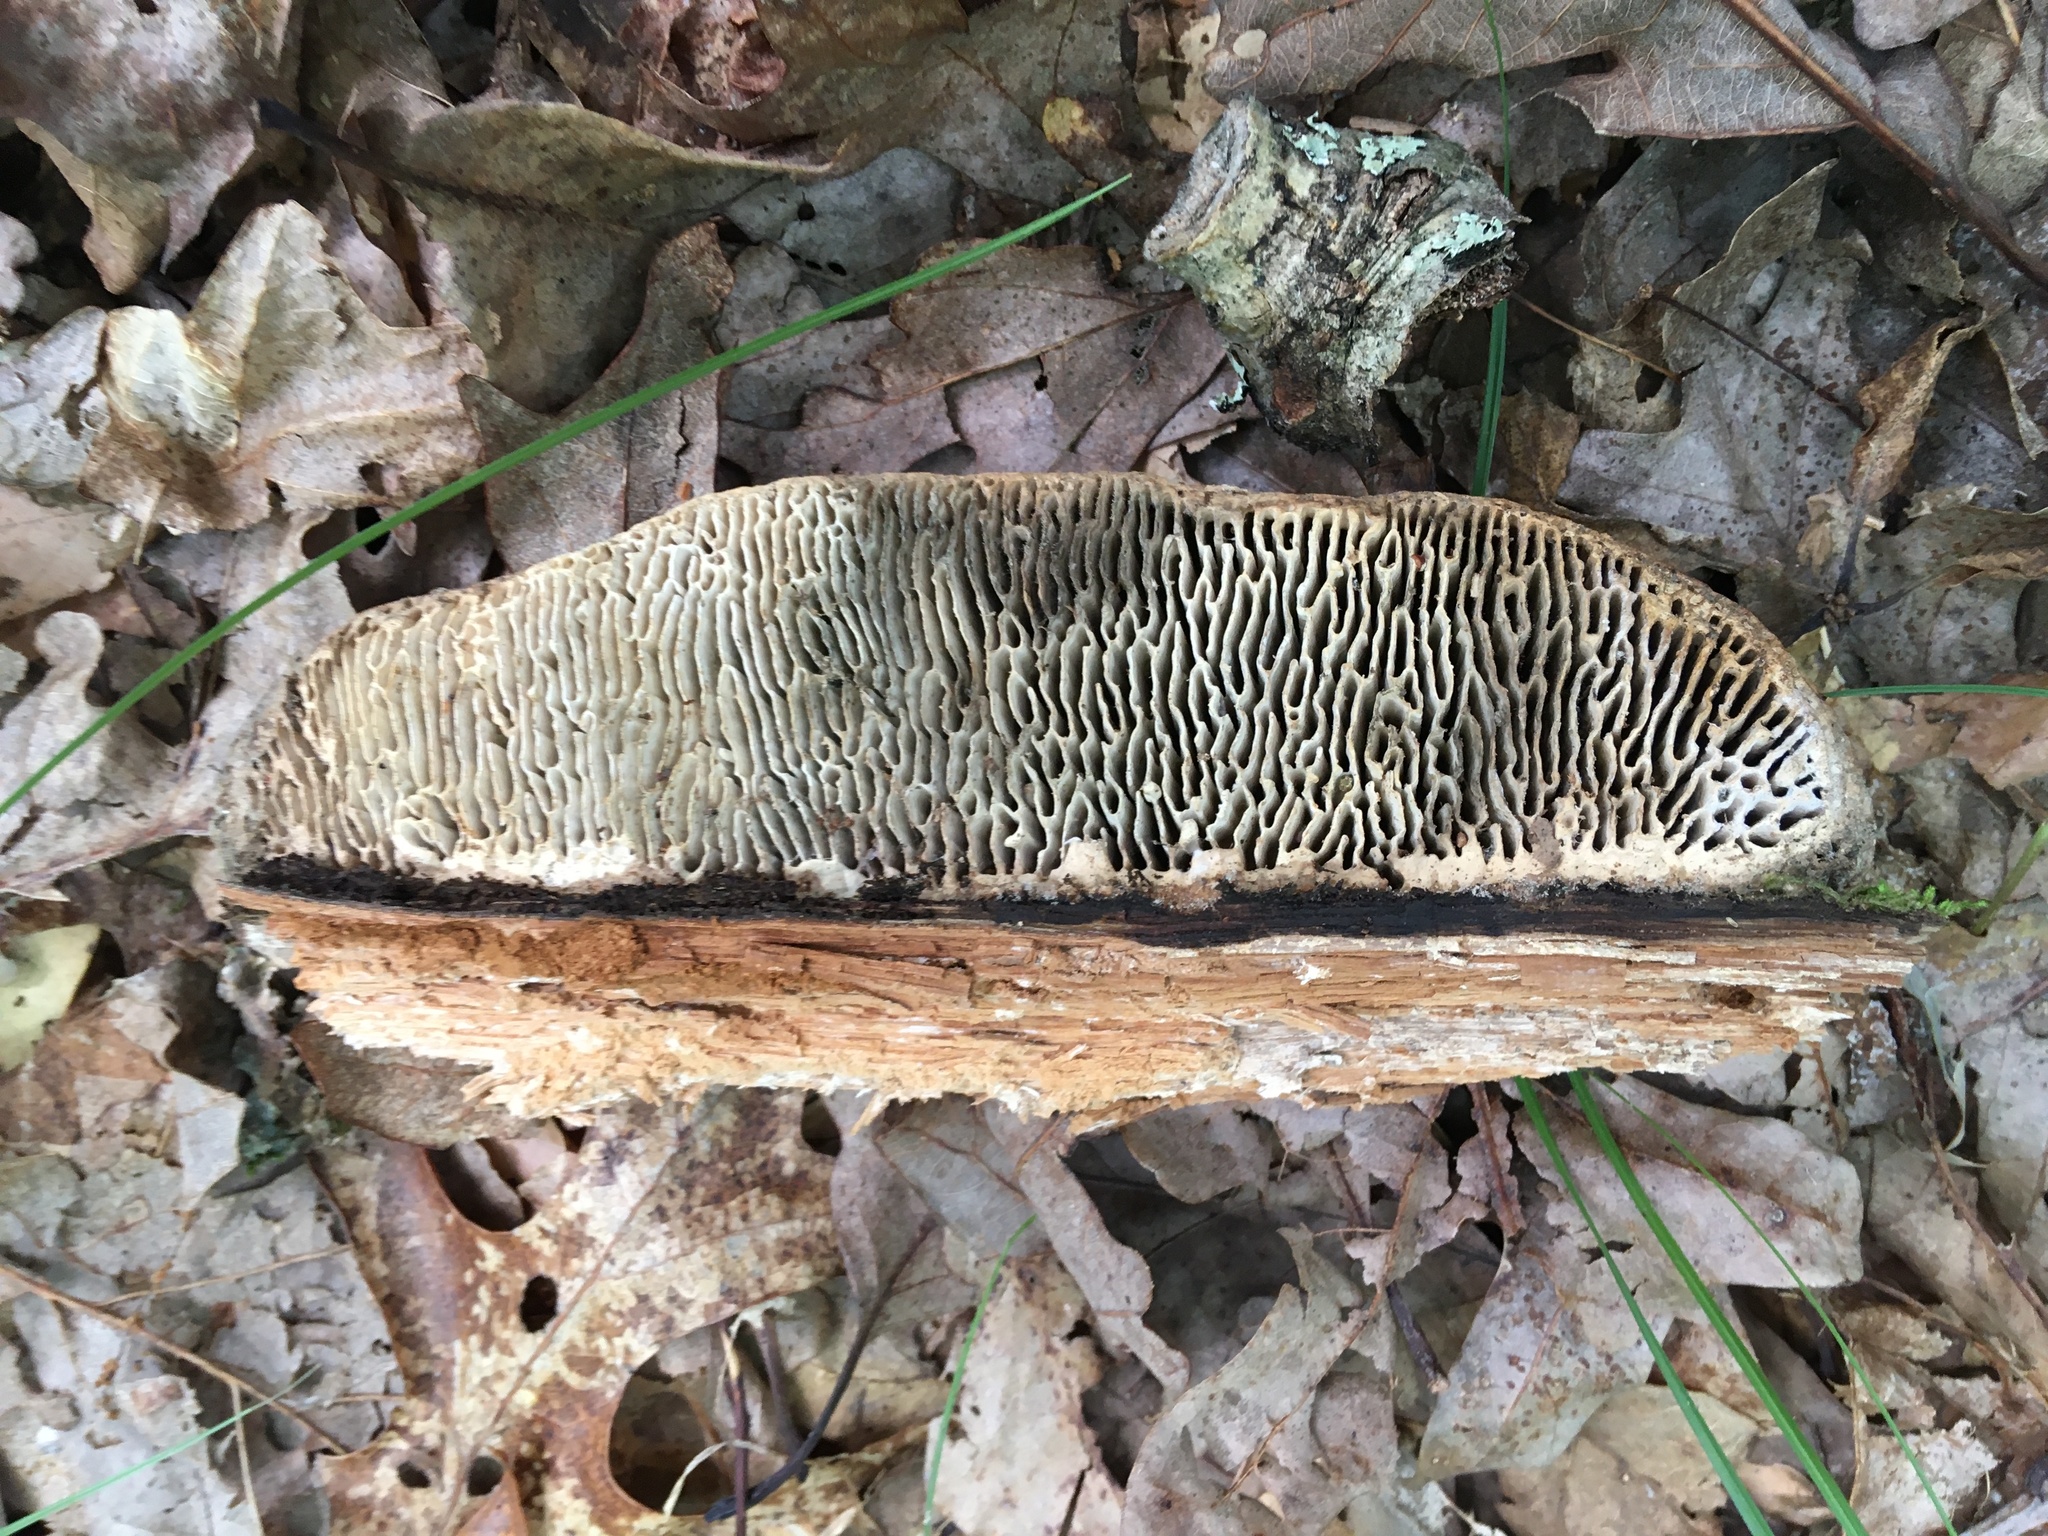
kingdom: Fungi
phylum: Basidiomycota
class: Agaricomycetes
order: Polyporales
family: Fomitopsidaceae
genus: Fomitopsis
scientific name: Fomitopsis
